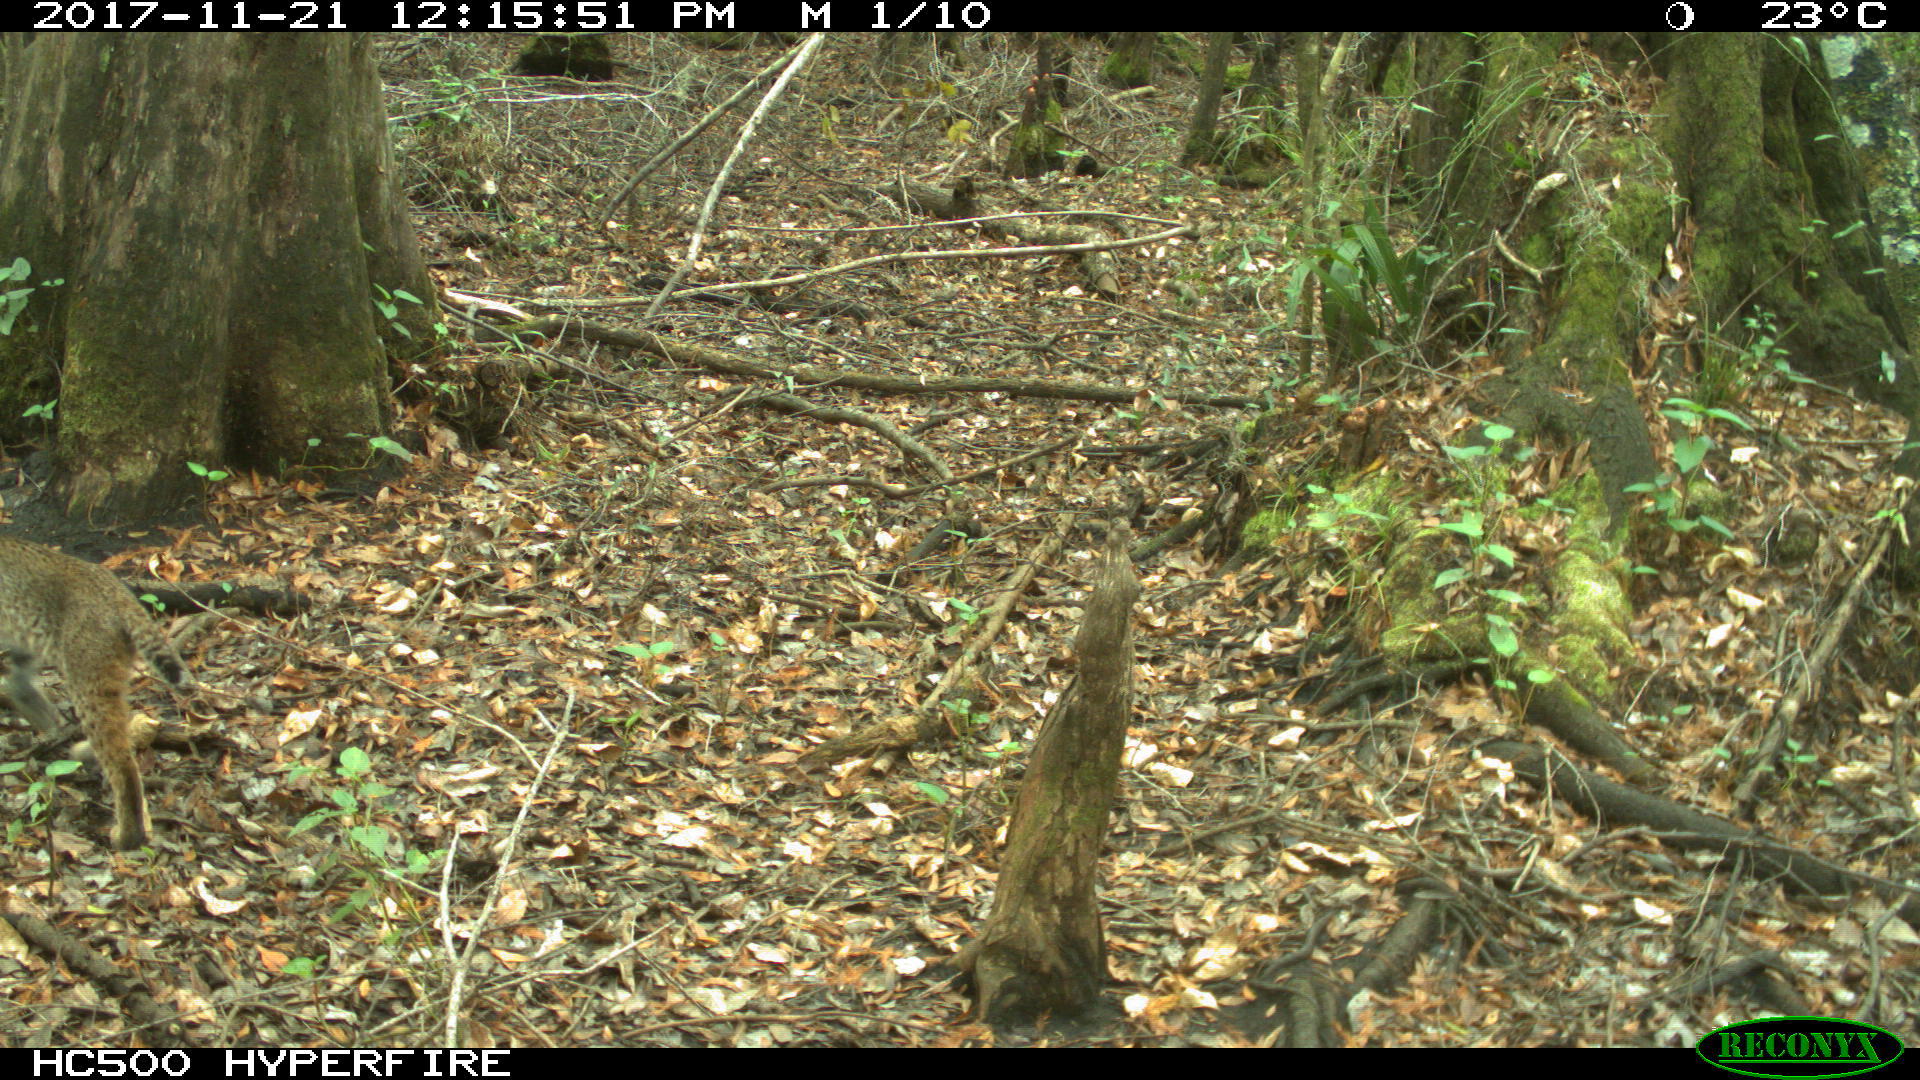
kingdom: Animalia
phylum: Chordata
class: Mammalia
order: Carnivora
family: Felidae
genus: Lynx
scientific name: Lynx rufus
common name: Bobcat
